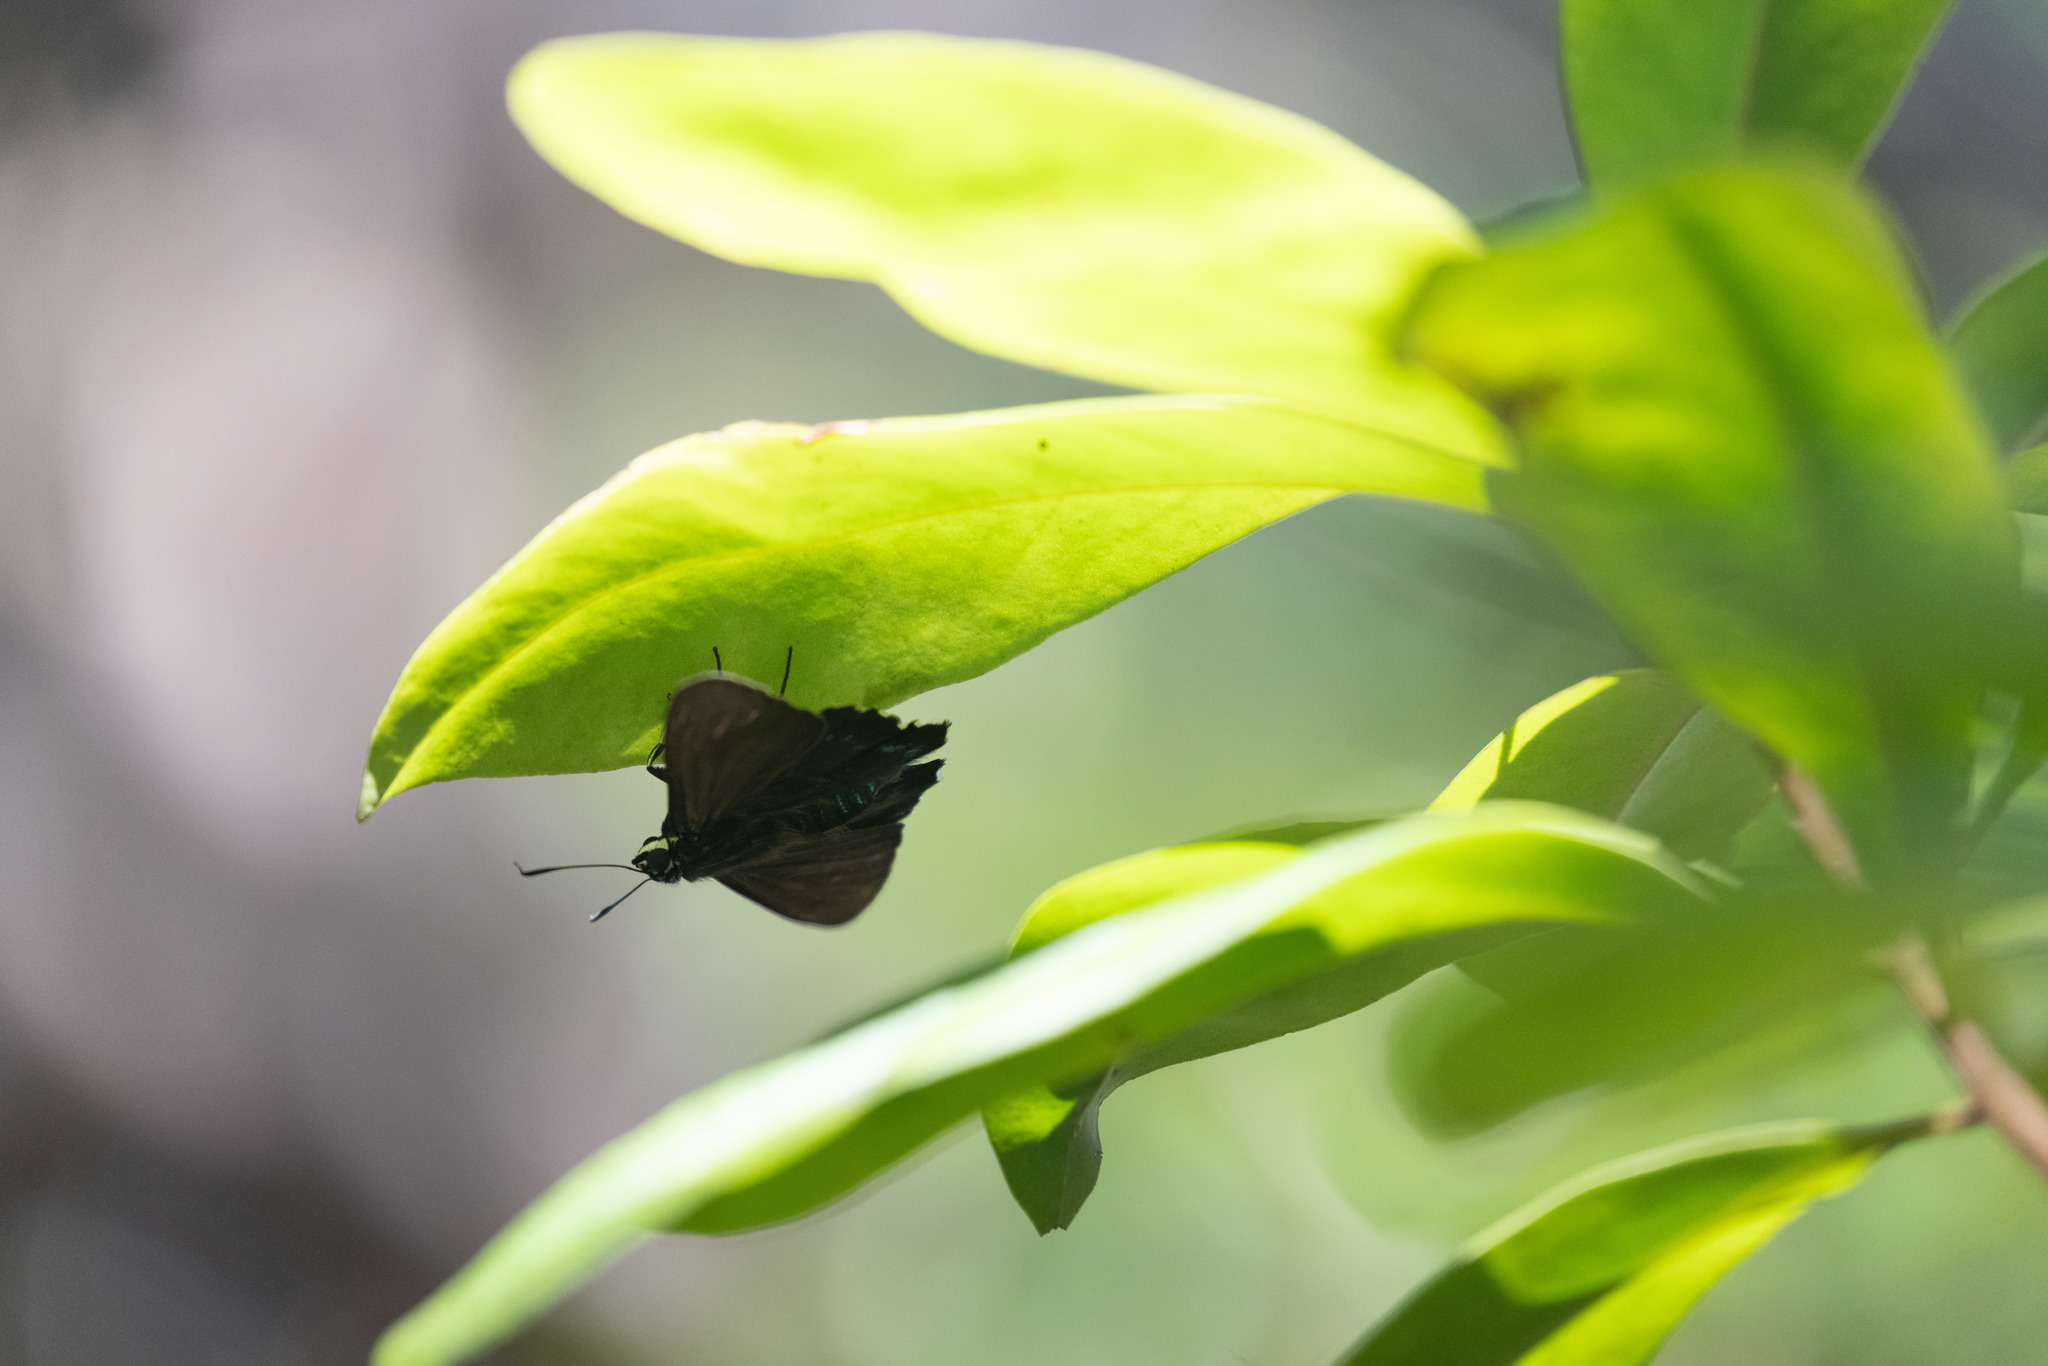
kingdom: Animalia
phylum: Arthropoda
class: Insecta
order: Lepidoptera
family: Hesperiidae
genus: Phocides
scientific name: Phocides pigmalion
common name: Mangrove skipper
